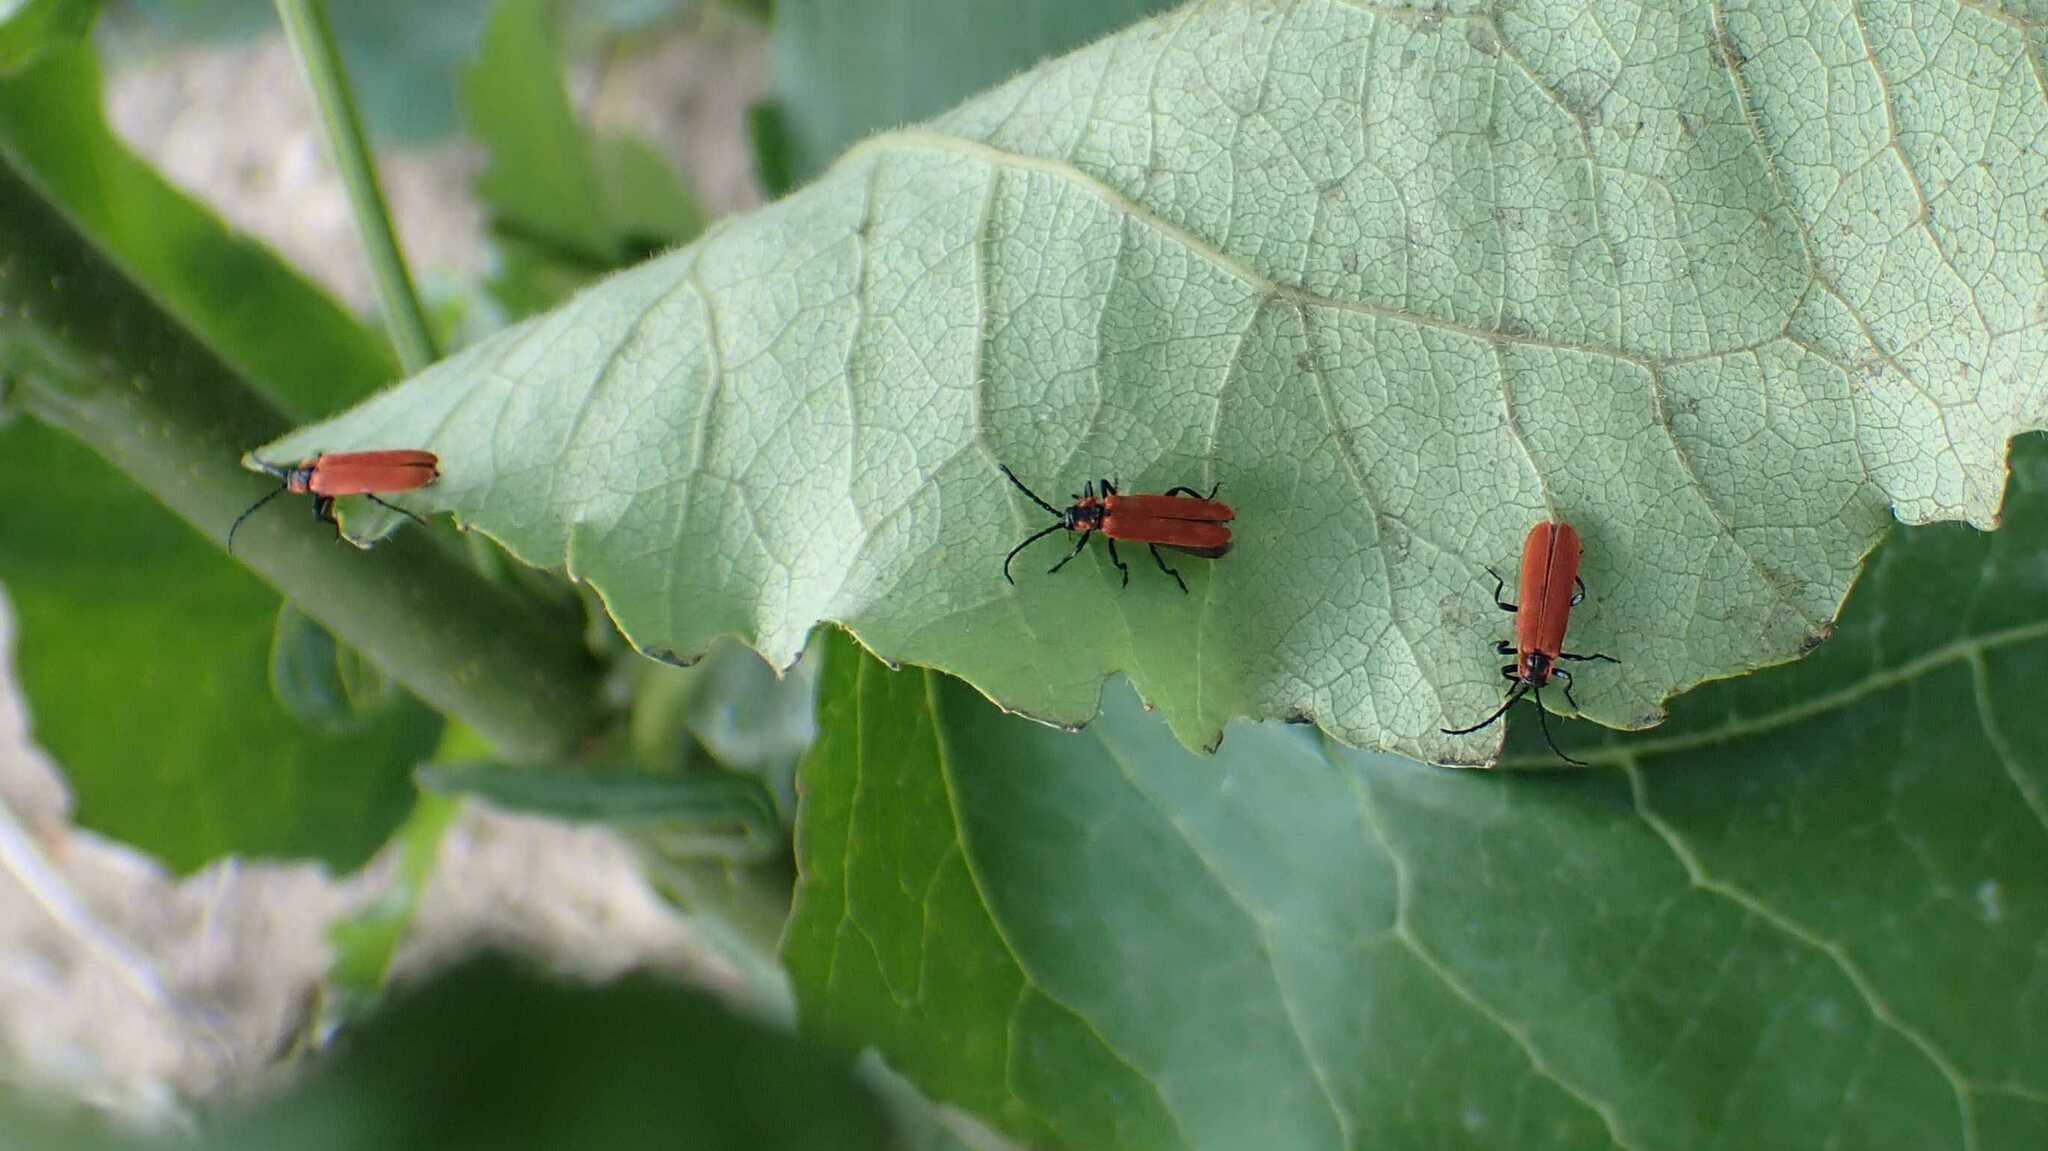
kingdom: Animalia
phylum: Arthropoda
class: Insecta
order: Coleoptera
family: Lycidae
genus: Lygistopterus
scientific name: Lygistopterus sanguineus
